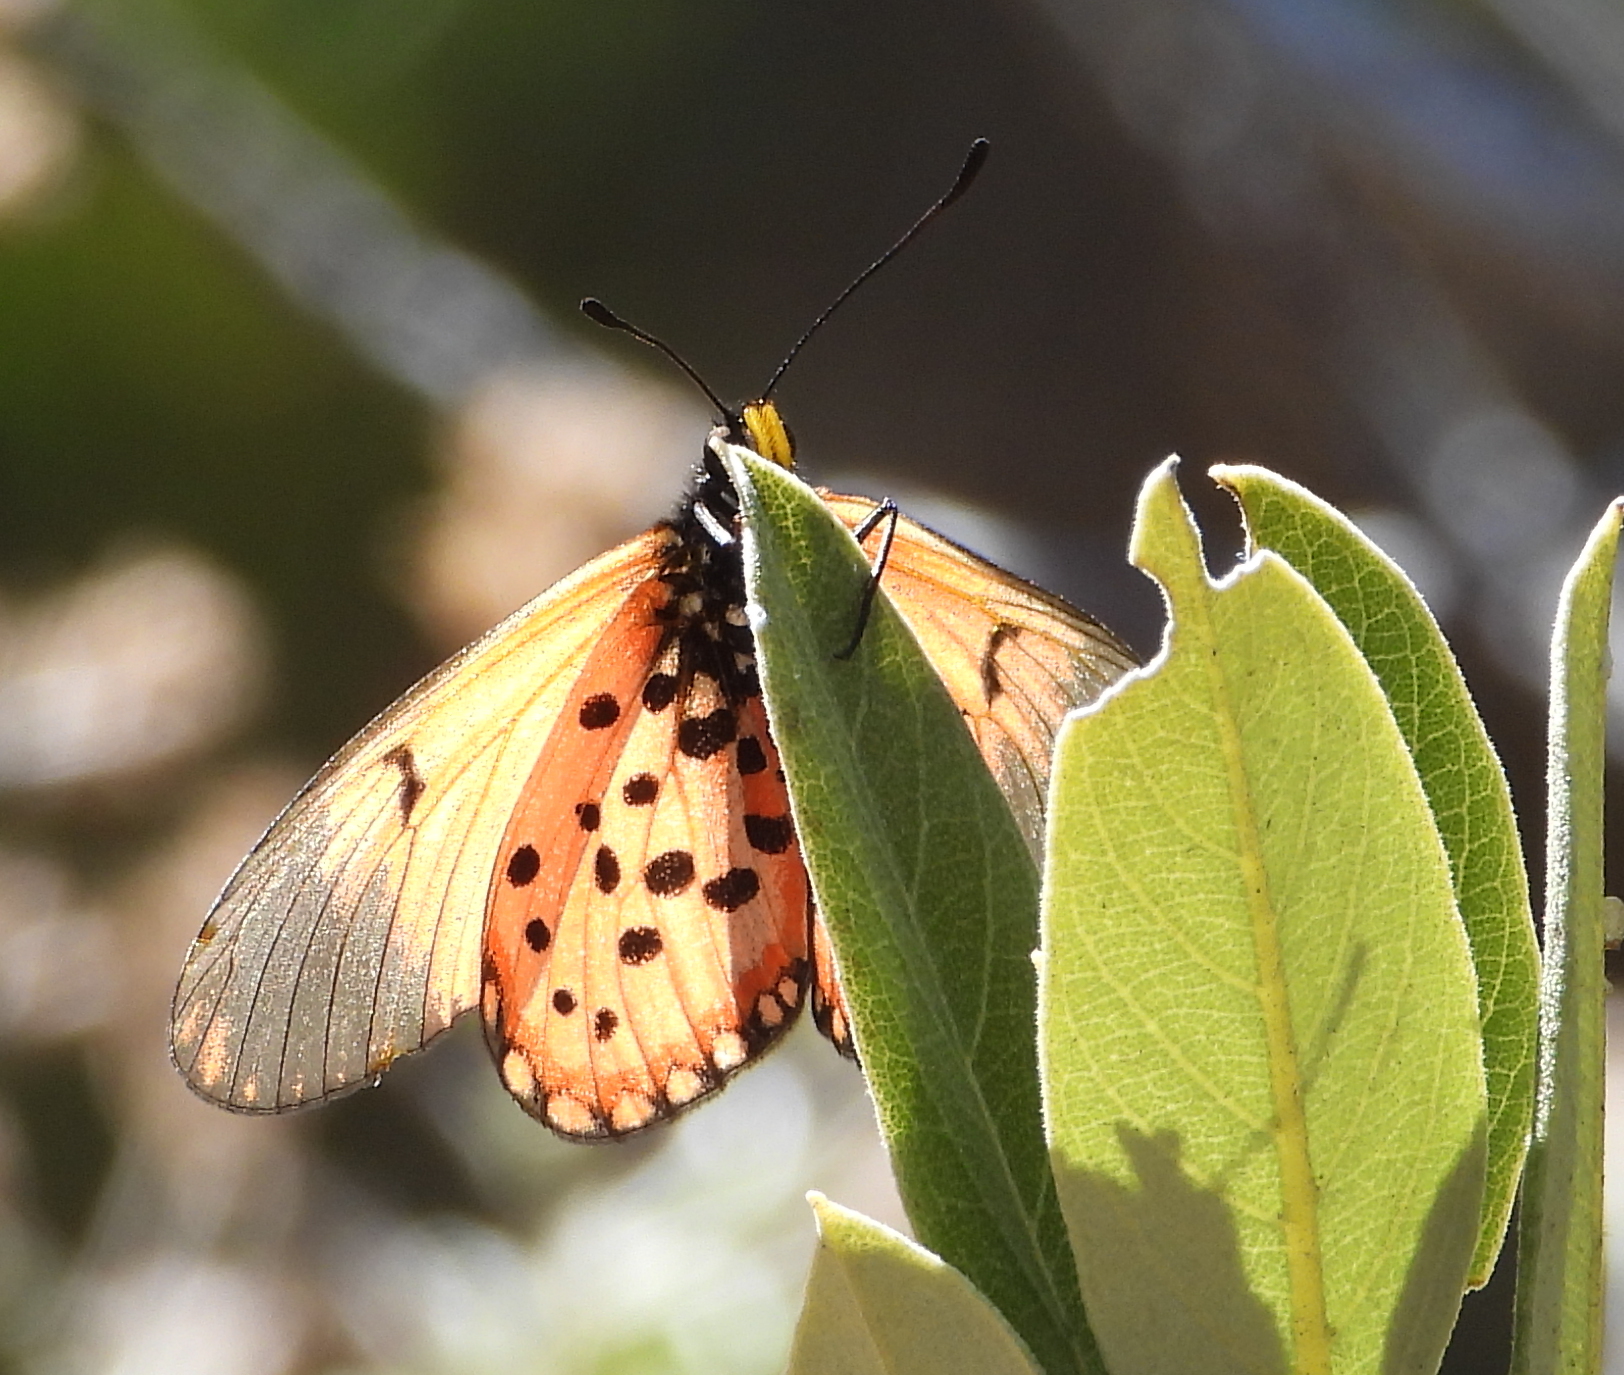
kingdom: Animalia
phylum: Arthropoda
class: Insecta
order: Lepidoptera
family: Nymphalidae
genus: Acraea
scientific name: Acraea horta
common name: Garden acraea
